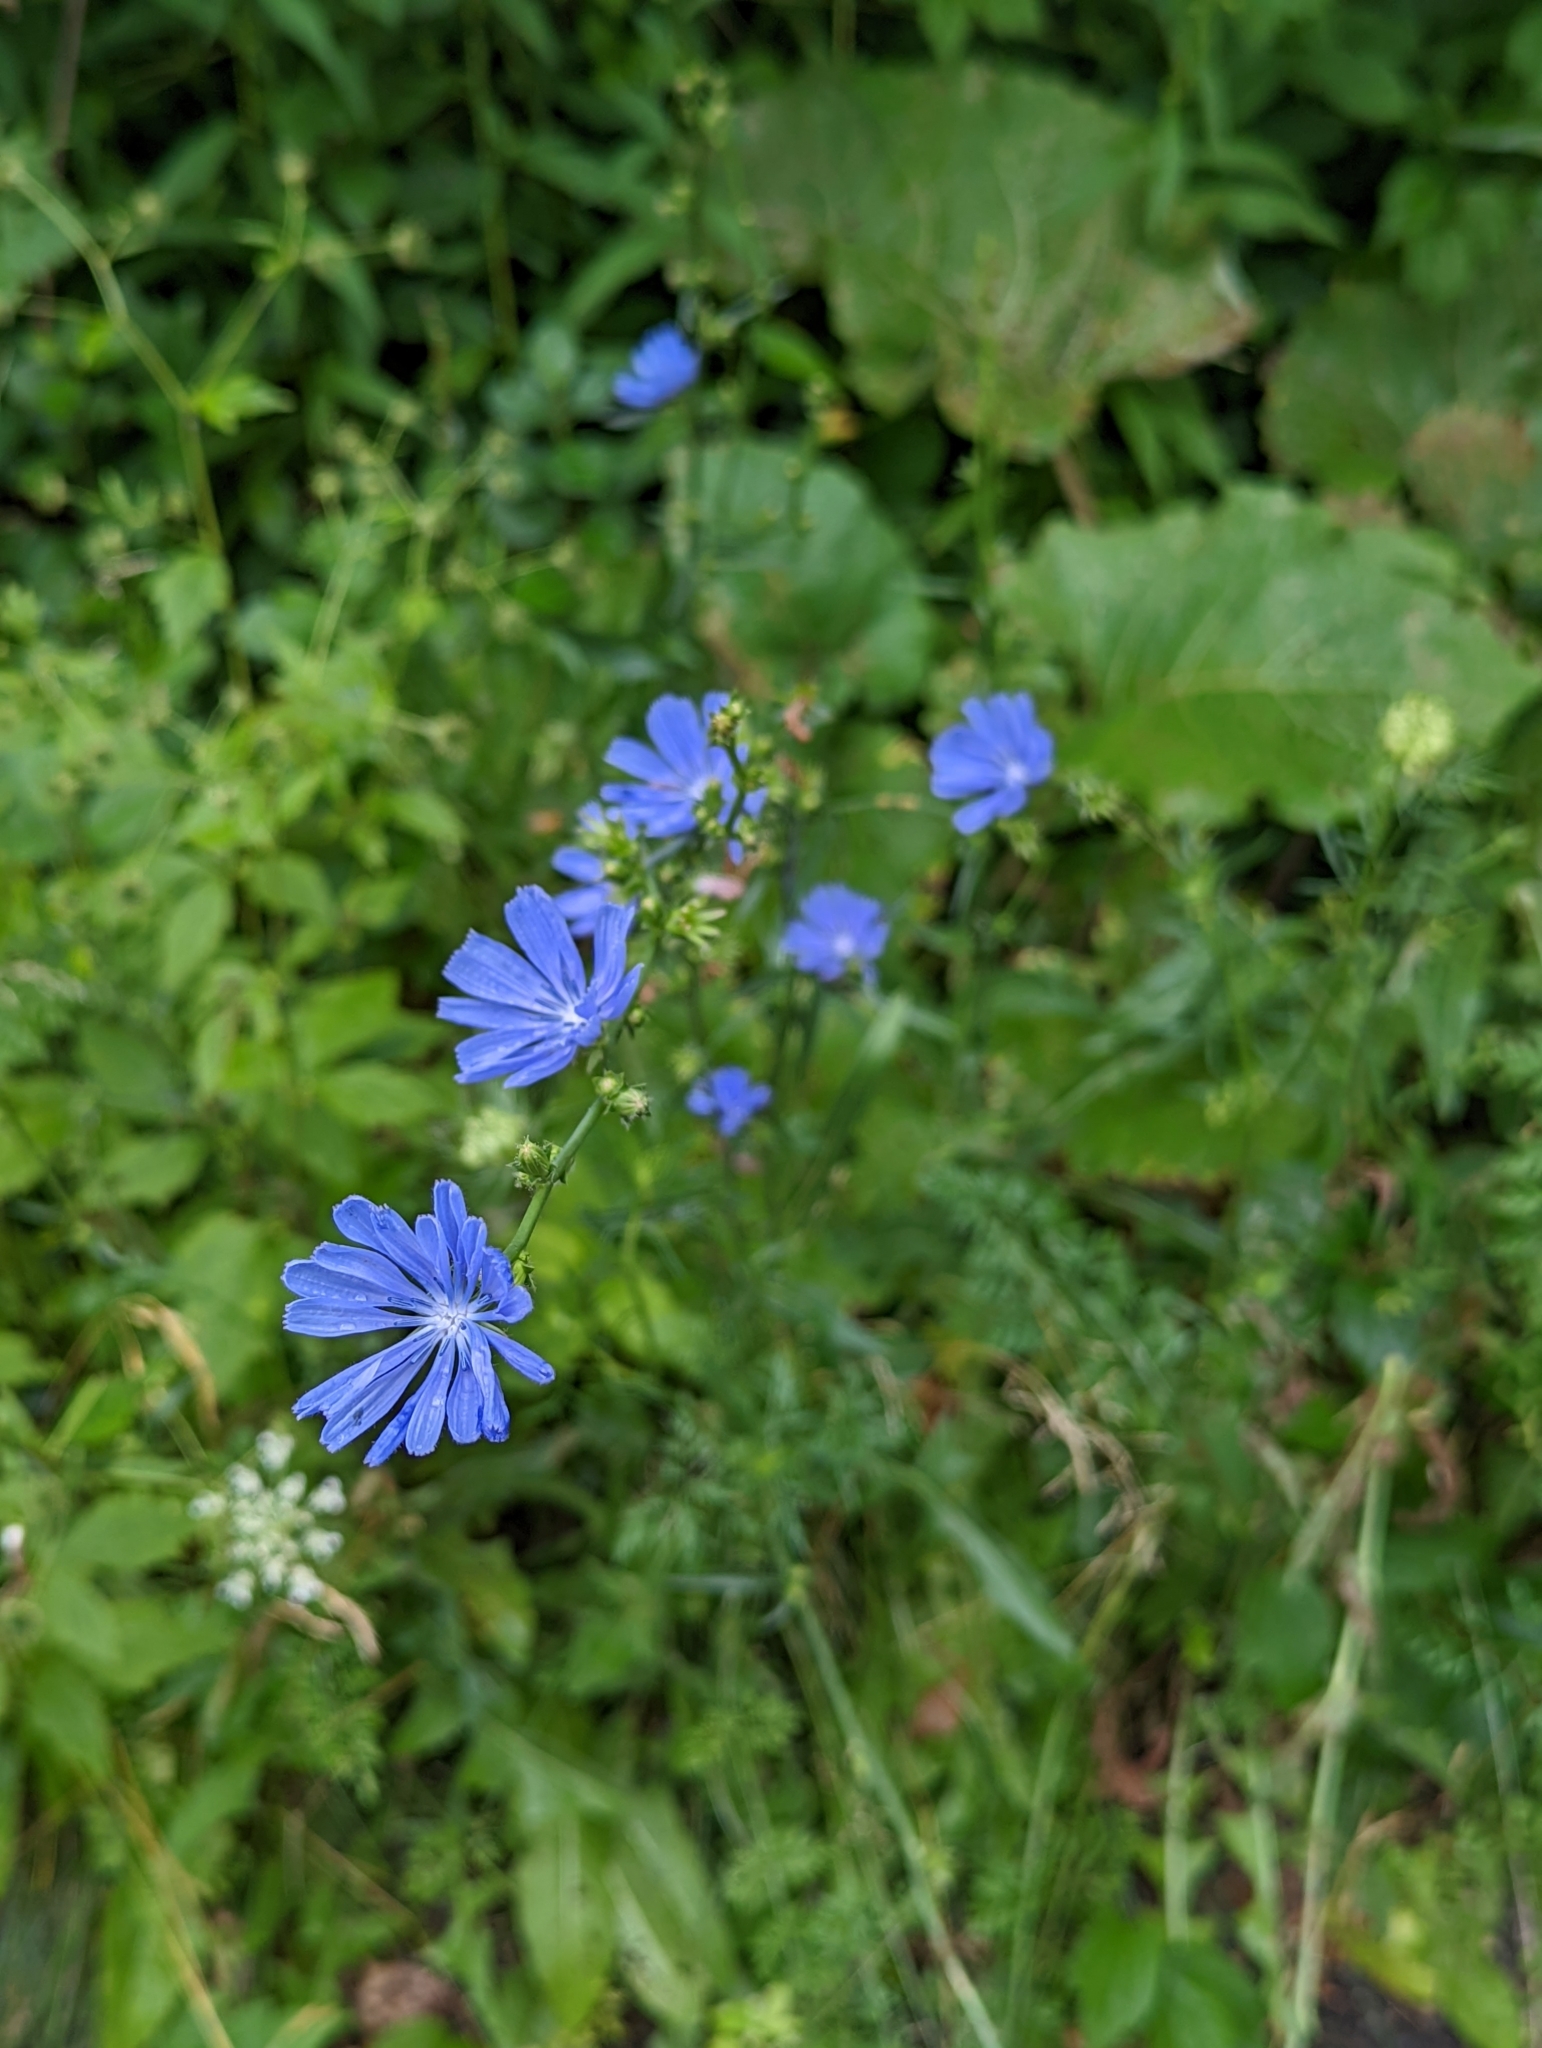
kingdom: Plantae
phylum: Tracheophyta
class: Magnoliopsida
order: Asterales
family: Asteraceae
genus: Cichorium
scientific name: Cichorium intybus
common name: Chicory
